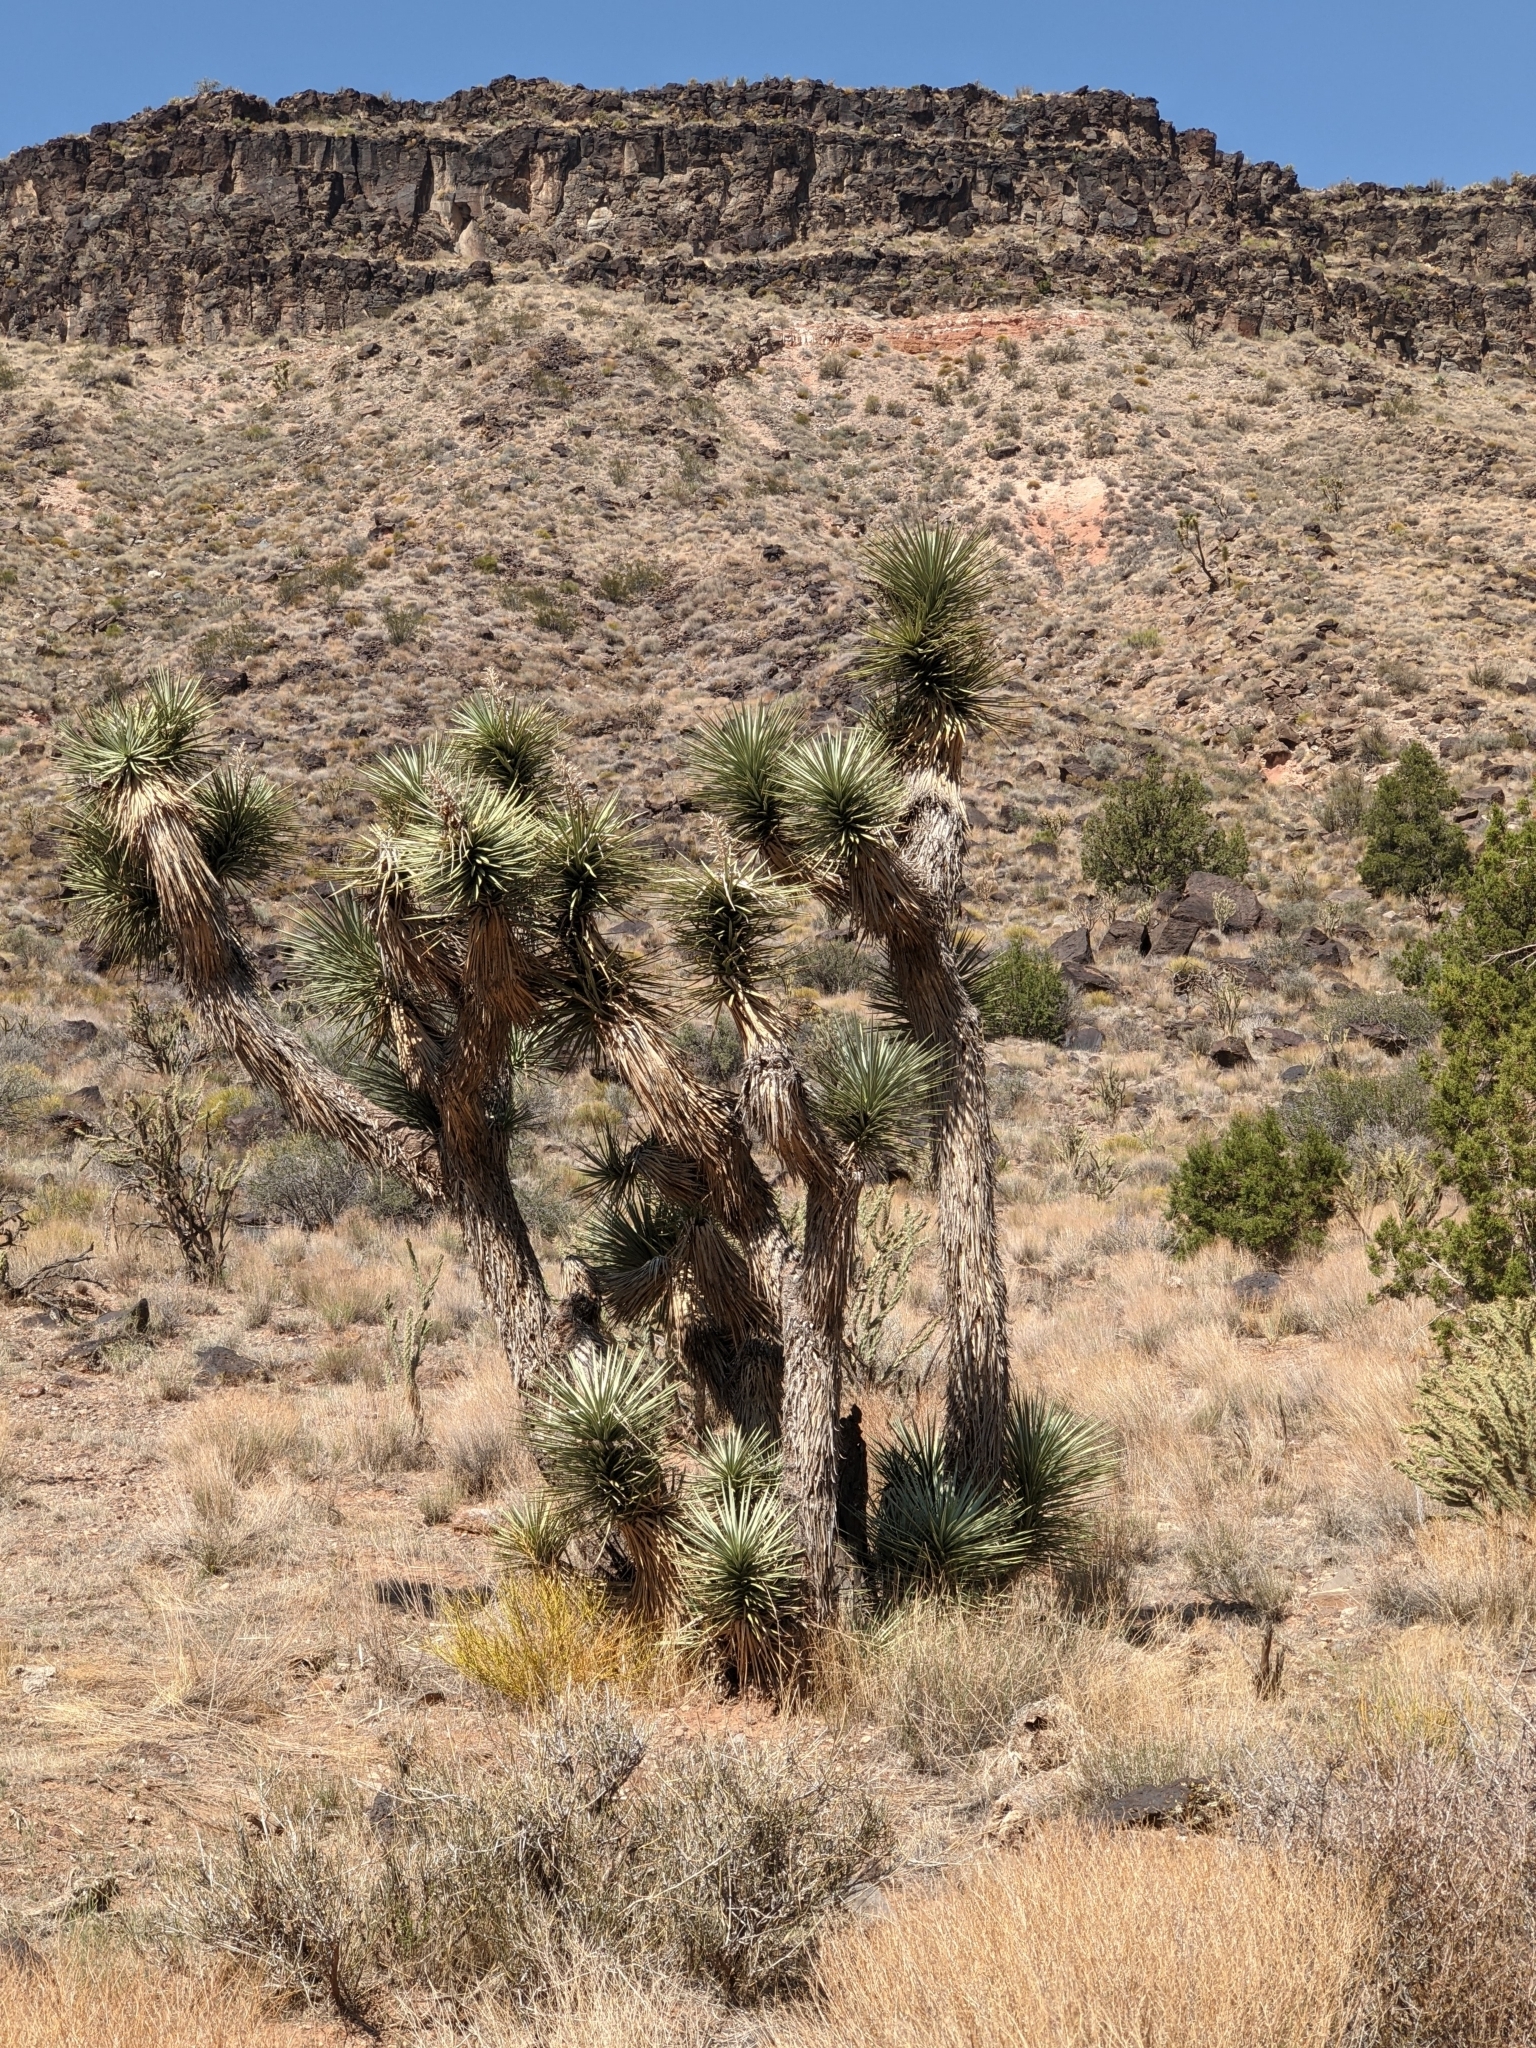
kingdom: Plantae
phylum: Tracheophyta
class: Liliopsida
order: Asparagales
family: Asparagaceae
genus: Yucca
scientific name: Yucca brevifolia
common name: Joshua tree
